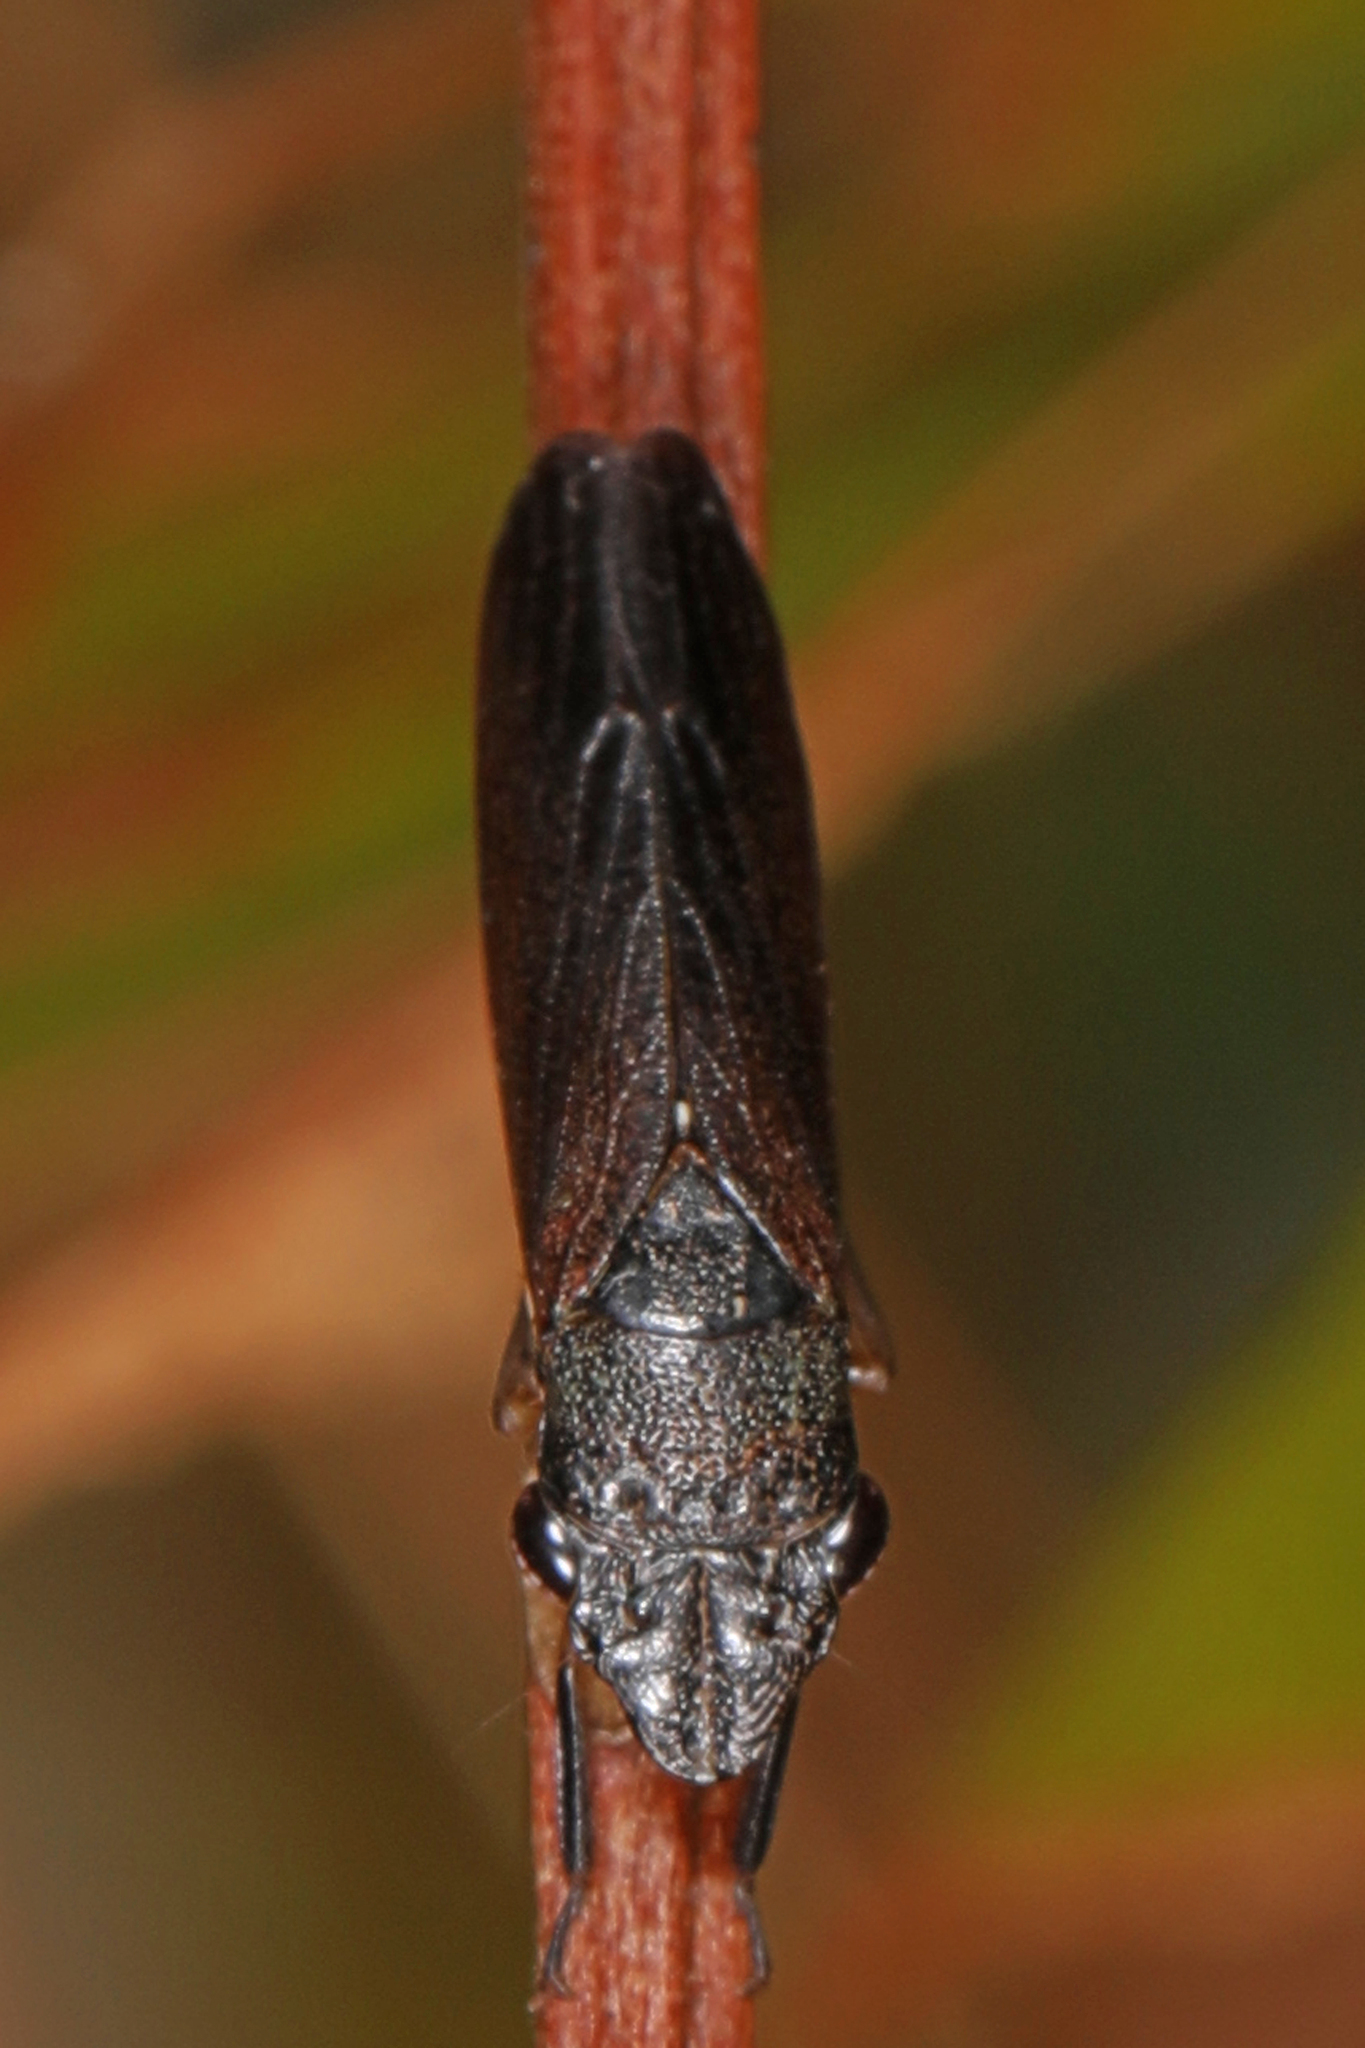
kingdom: Animalia
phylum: Arthropoda
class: Insecta
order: Hemiptera
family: Cicadellidae
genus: Homalodisca
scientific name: Homalodisca insolita
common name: Johnson grass sharpshooter
